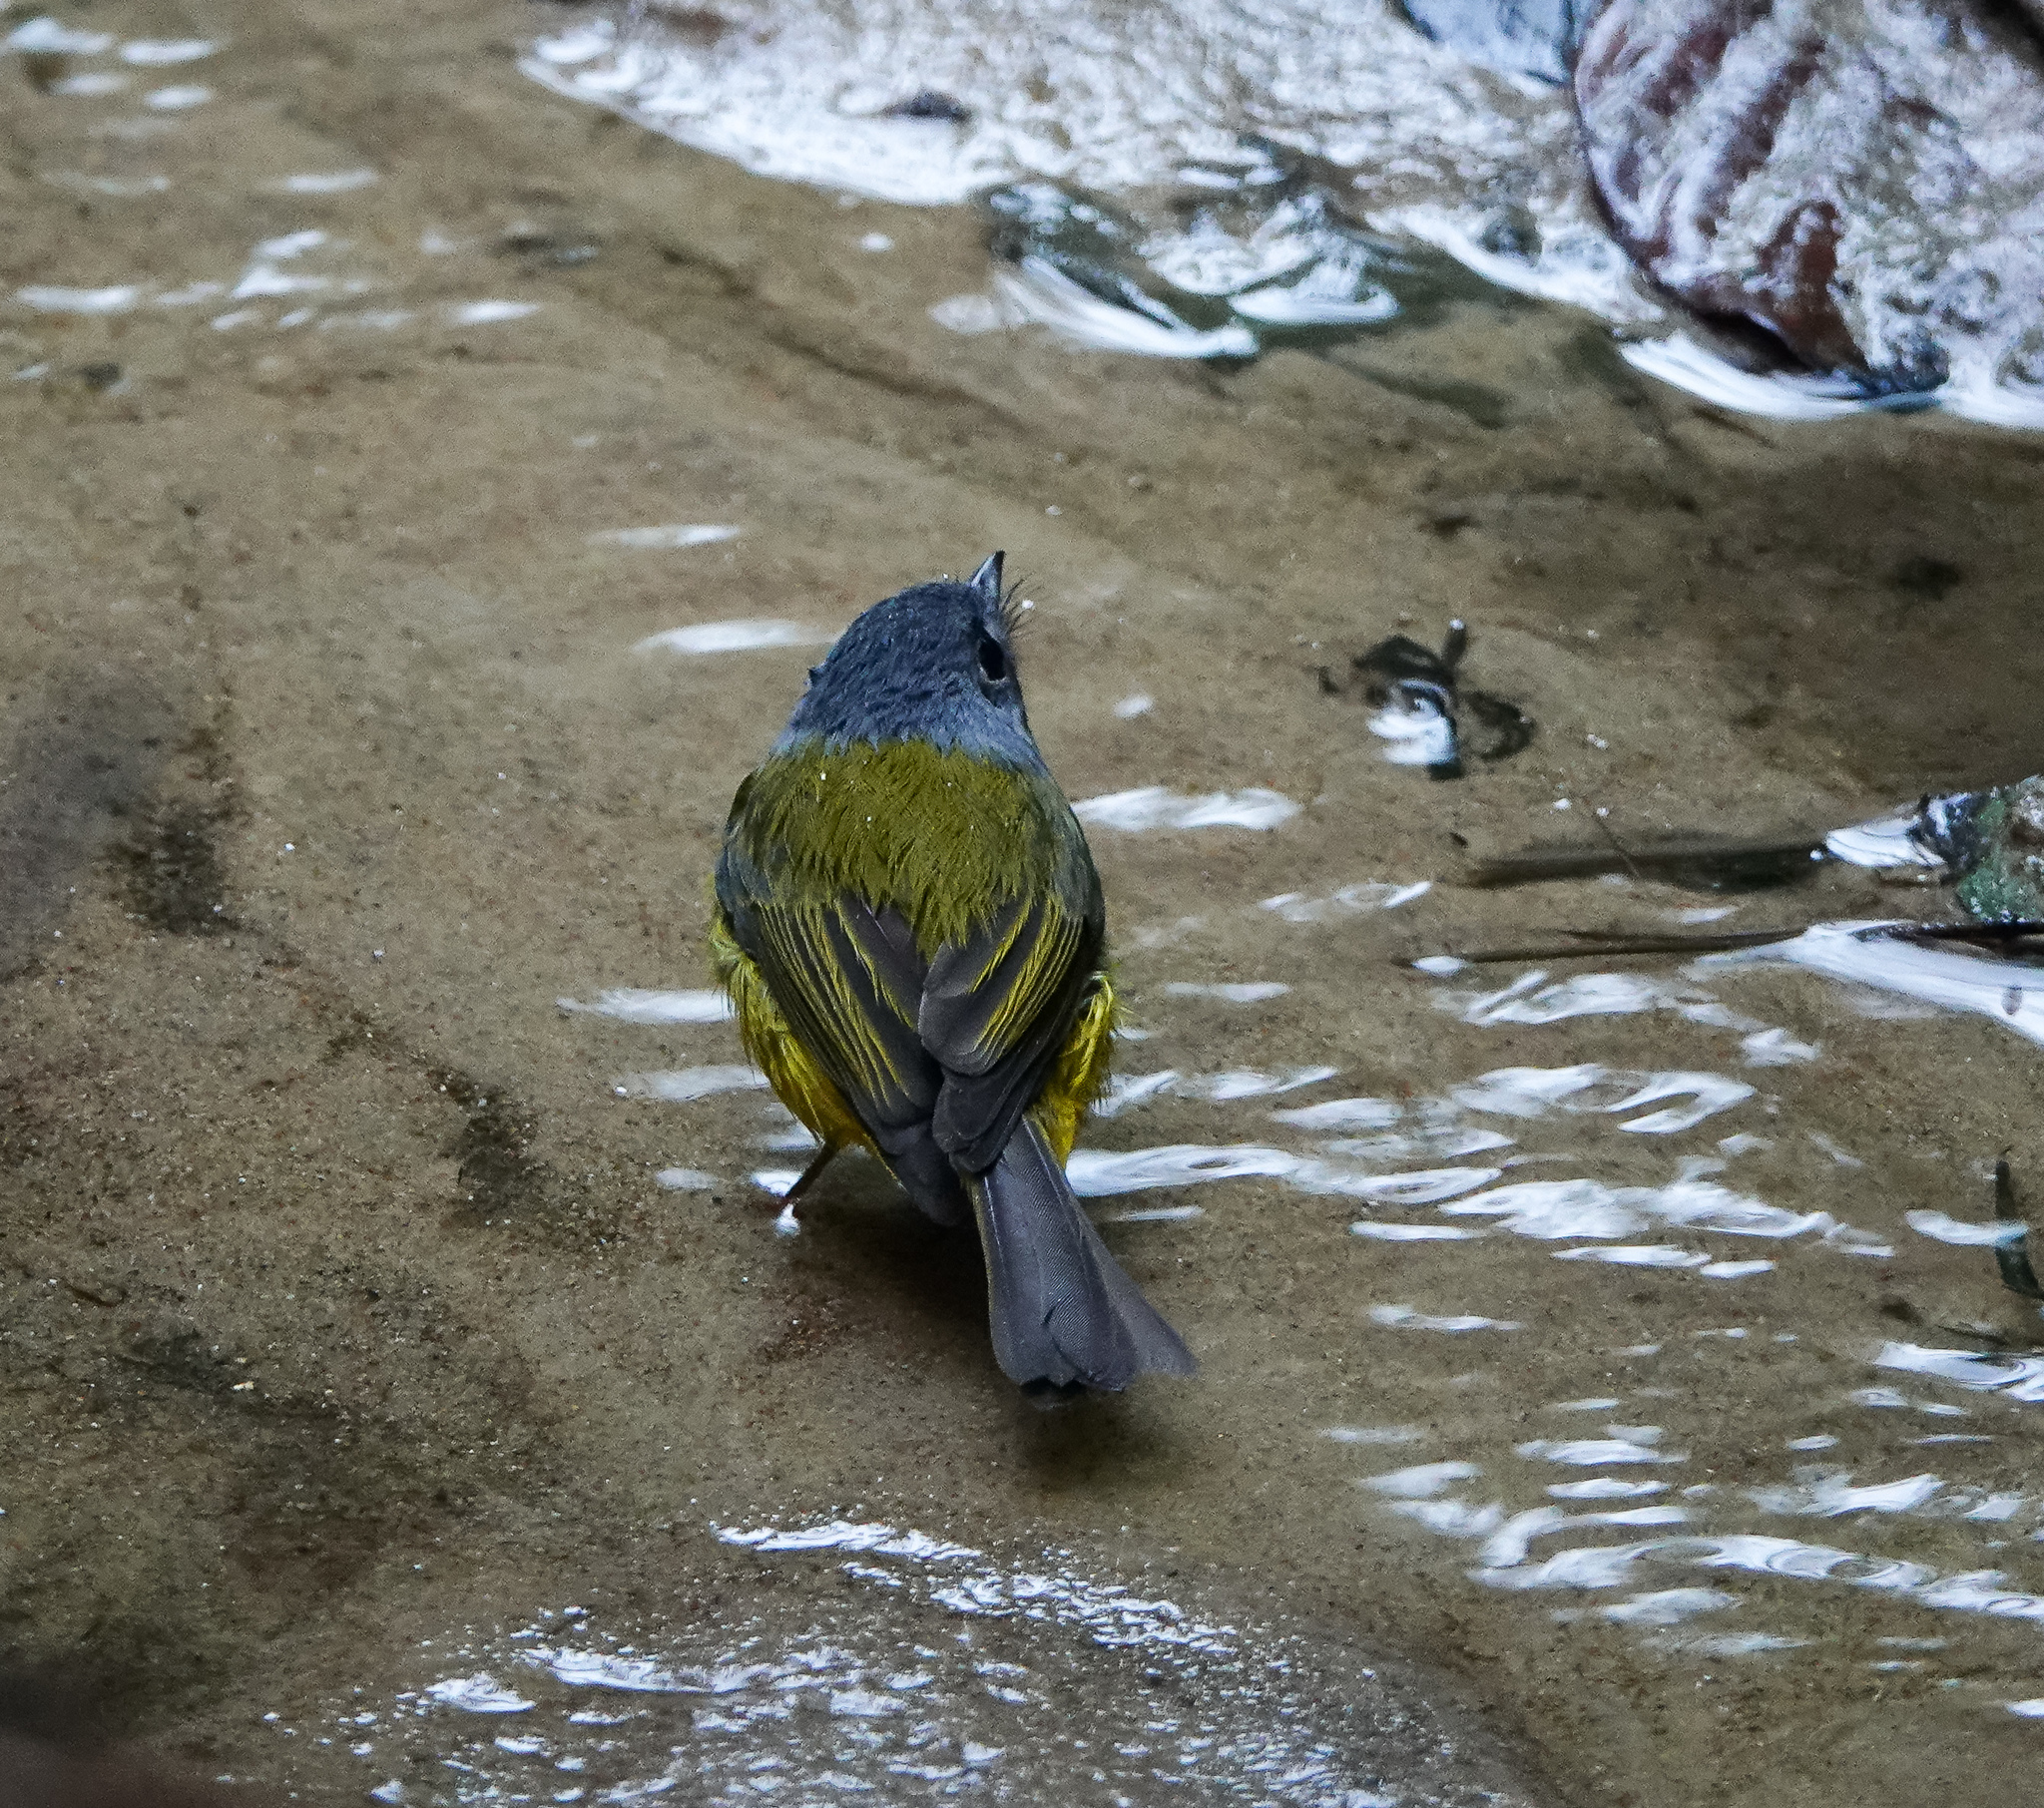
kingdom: Animalia
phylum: Chordata
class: Aves
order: Passeriformes
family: Stenostiridae
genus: Culicicapa
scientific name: Culicicapa ceylonensis
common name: Grey-headed canary-flycatcher
